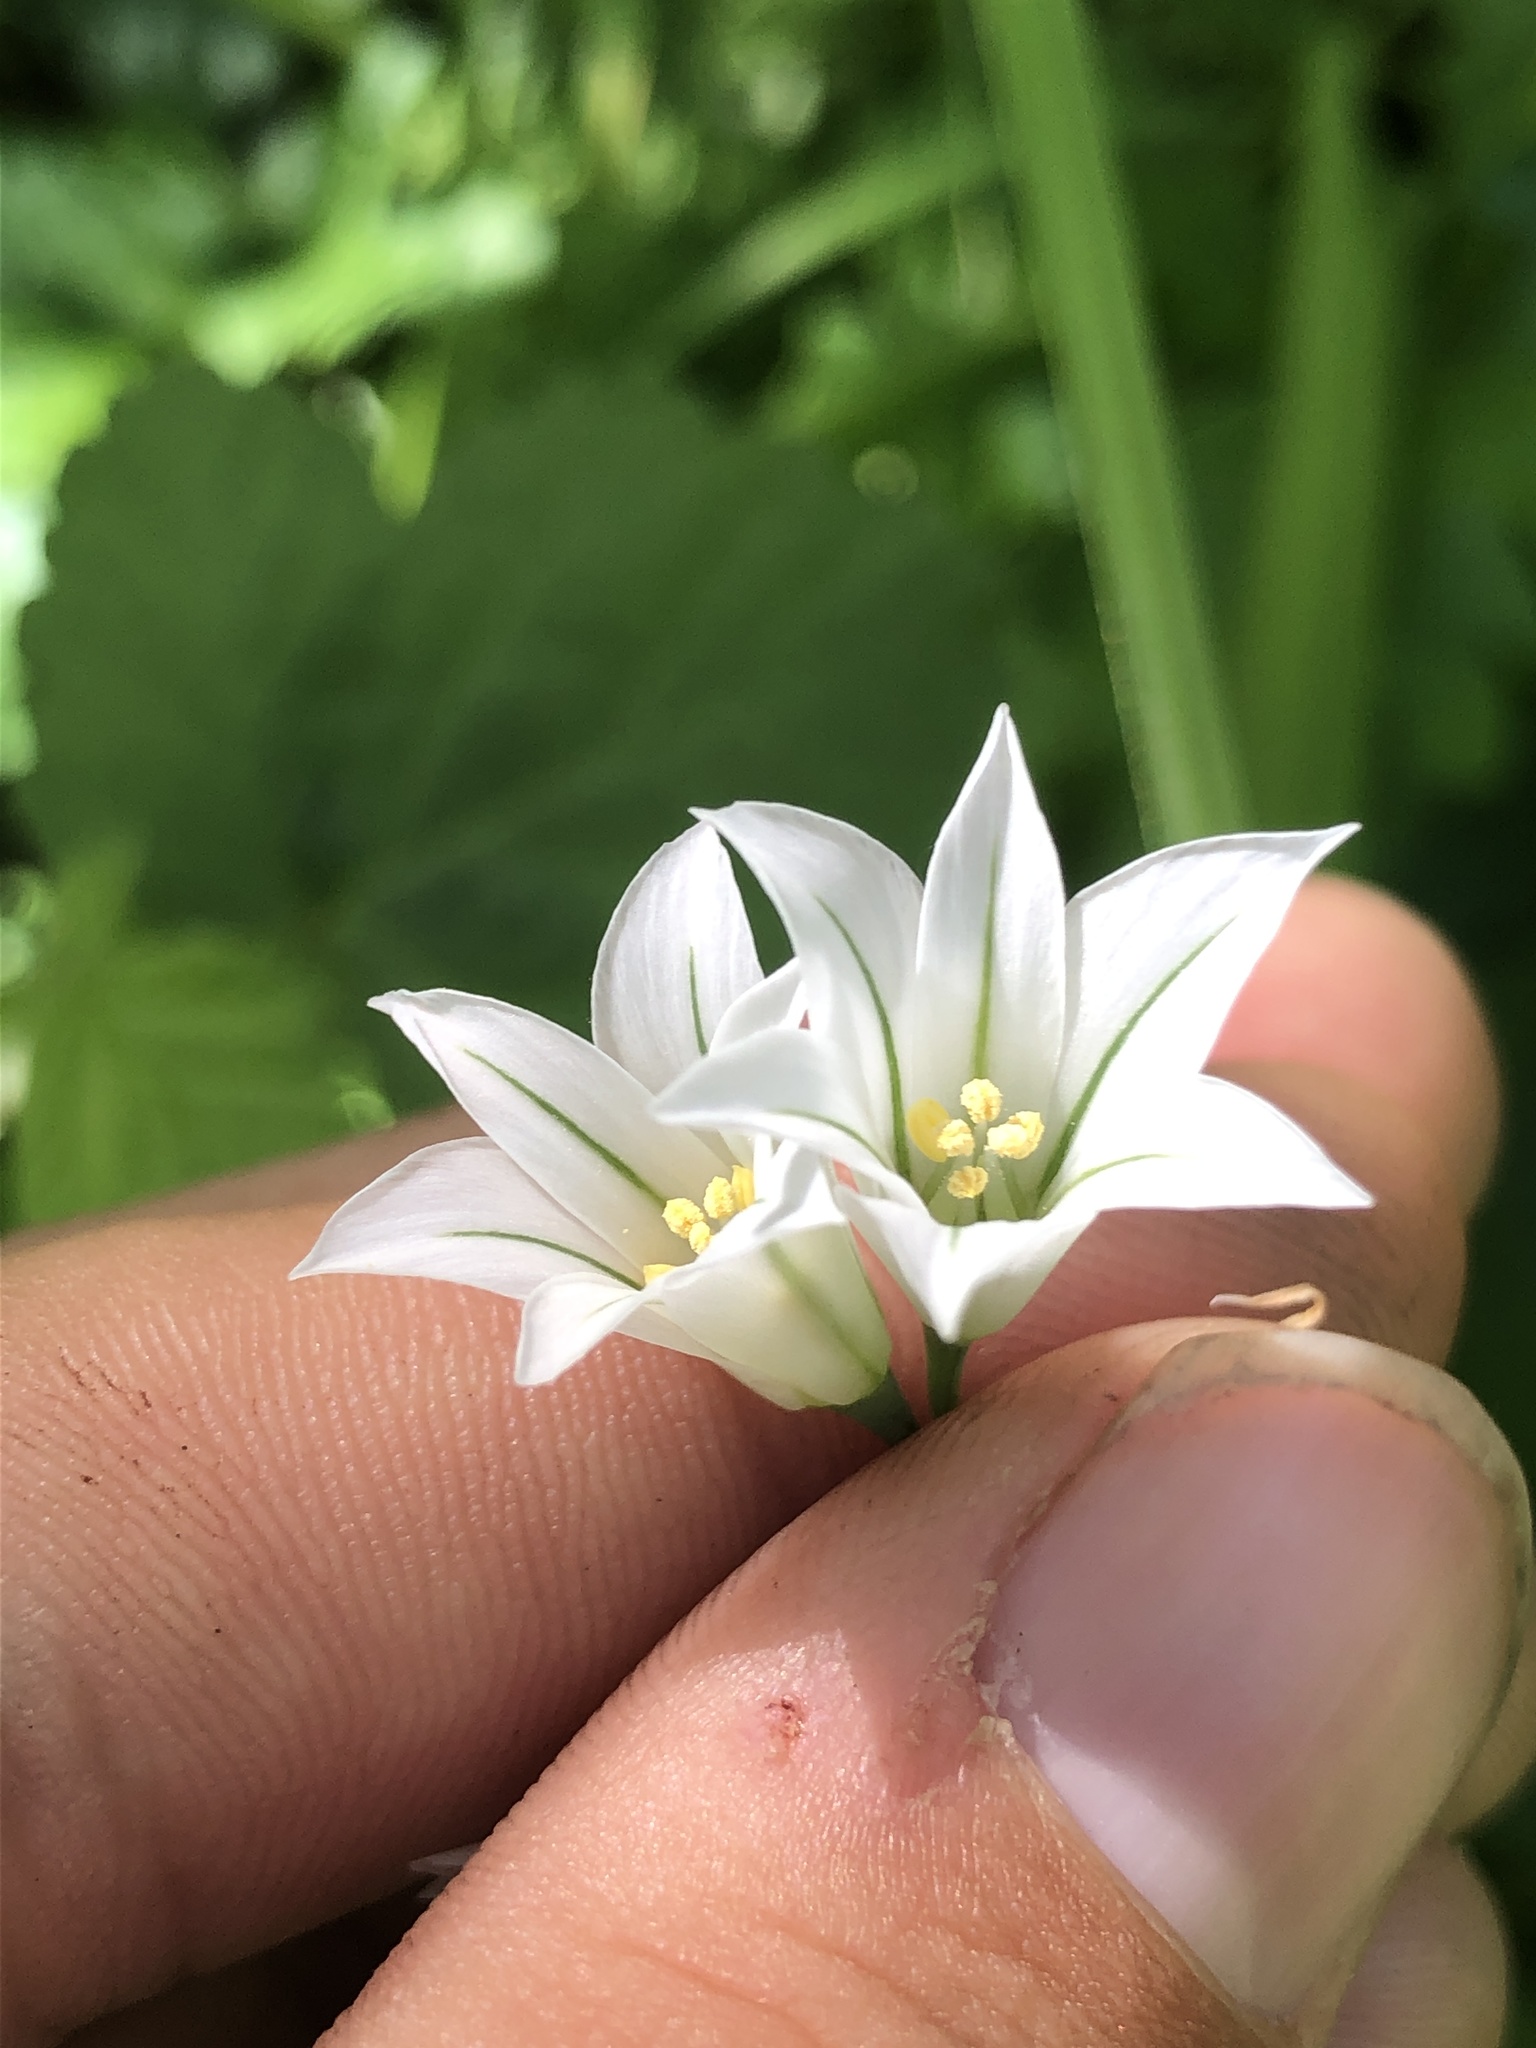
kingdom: Plantae
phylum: Tracheophyta
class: Liliopsida
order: Asparagales
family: Amaryllidaceae
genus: Allium
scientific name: Allium triquetrum
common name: Three-cornered garlic
